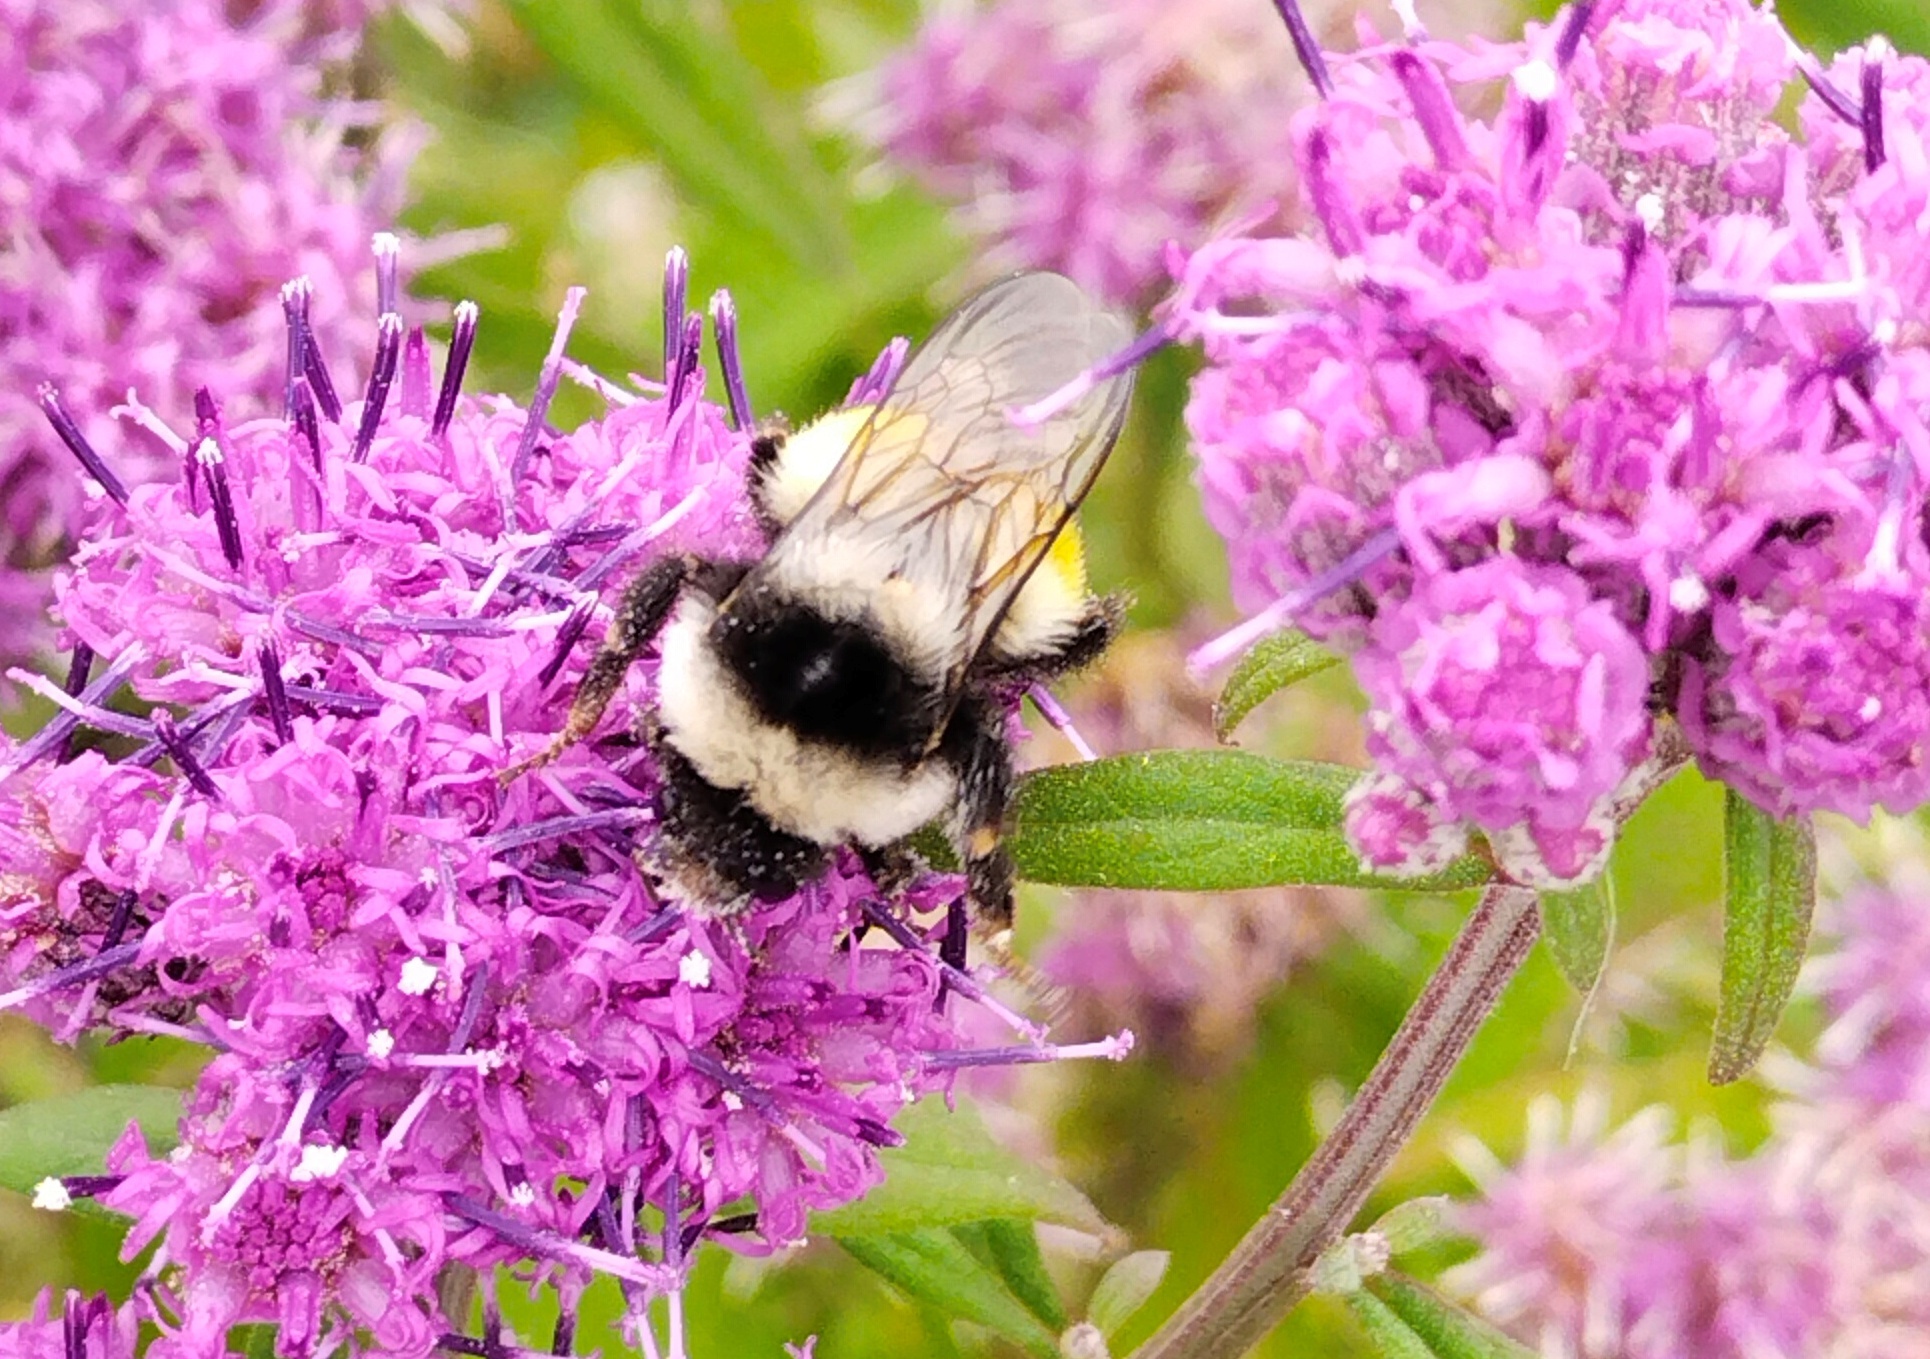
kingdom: Animalia
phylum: Arthropoda
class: Insecta
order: Hymenoptera
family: Apidae
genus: Bombus
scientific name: Bombus patagiatus
